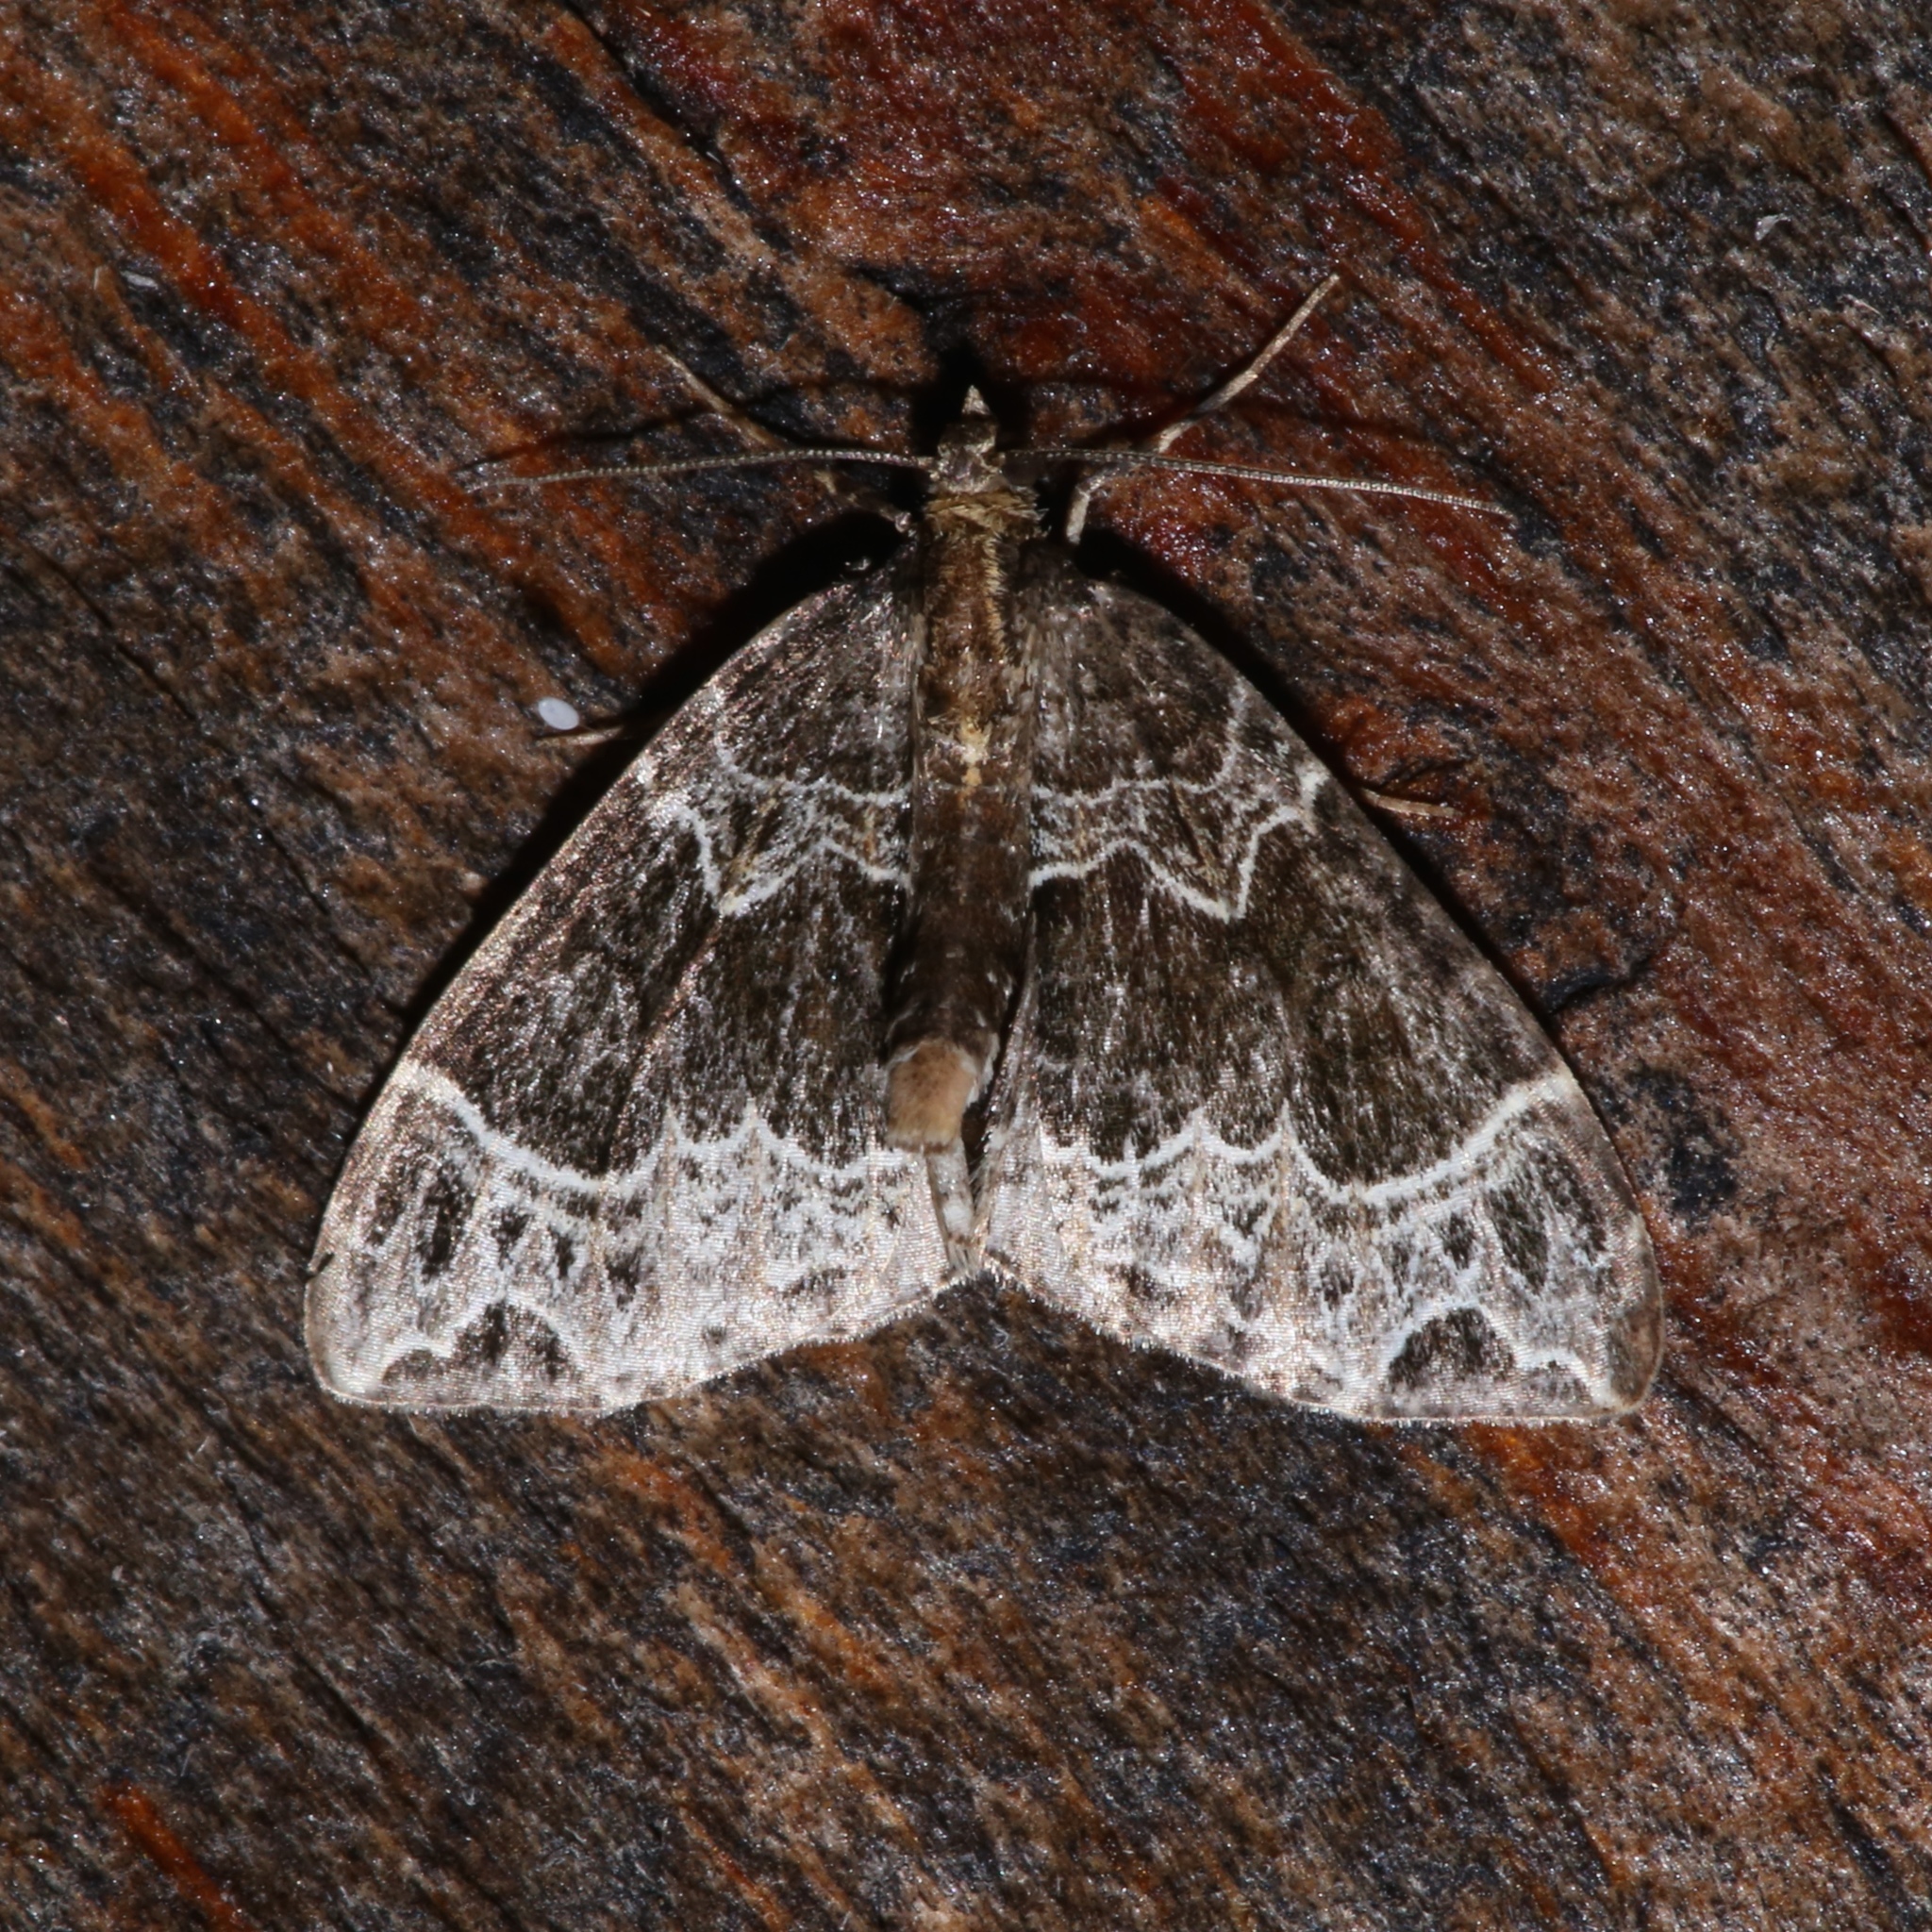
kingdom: Animalia
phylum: Arthropoda
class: Insecta
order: Lepidoptera
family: Geometridae
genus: Ecliptopera
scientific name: Ecliptopera silaceata
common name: Small phoenix
